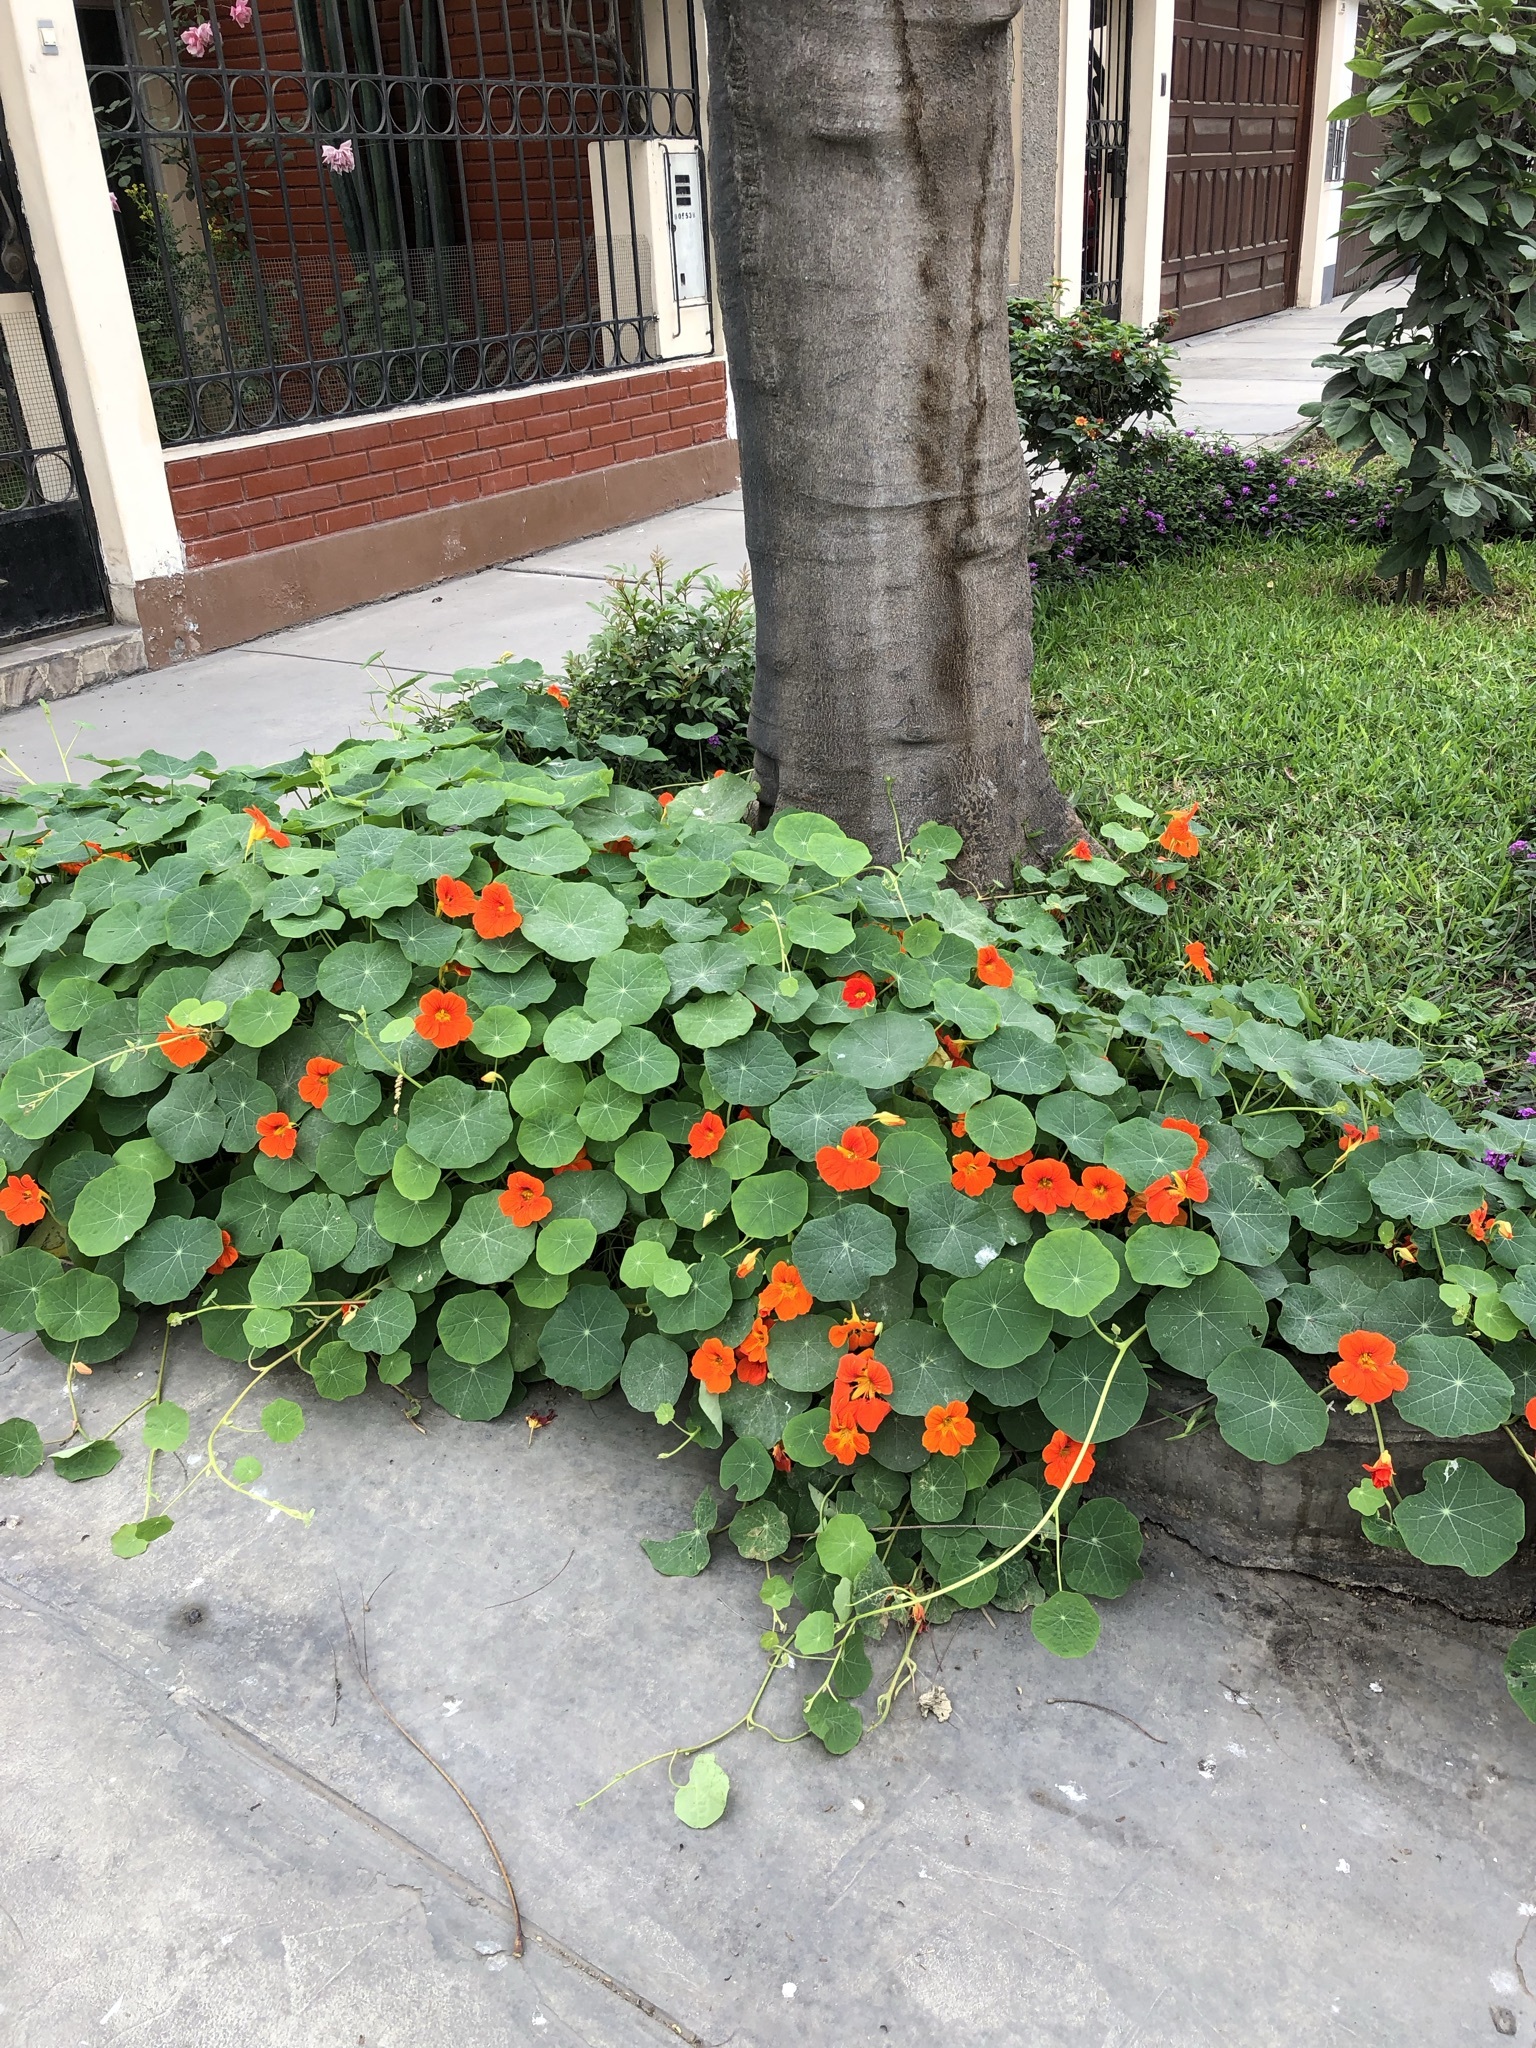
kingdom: Plantae
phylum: Tracheophyta
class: Magnoliopsida
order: Brassicales
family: Tropaeolaceae
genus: Tropaeolum
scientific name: Tropaeolum majus
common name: Nasturtium
